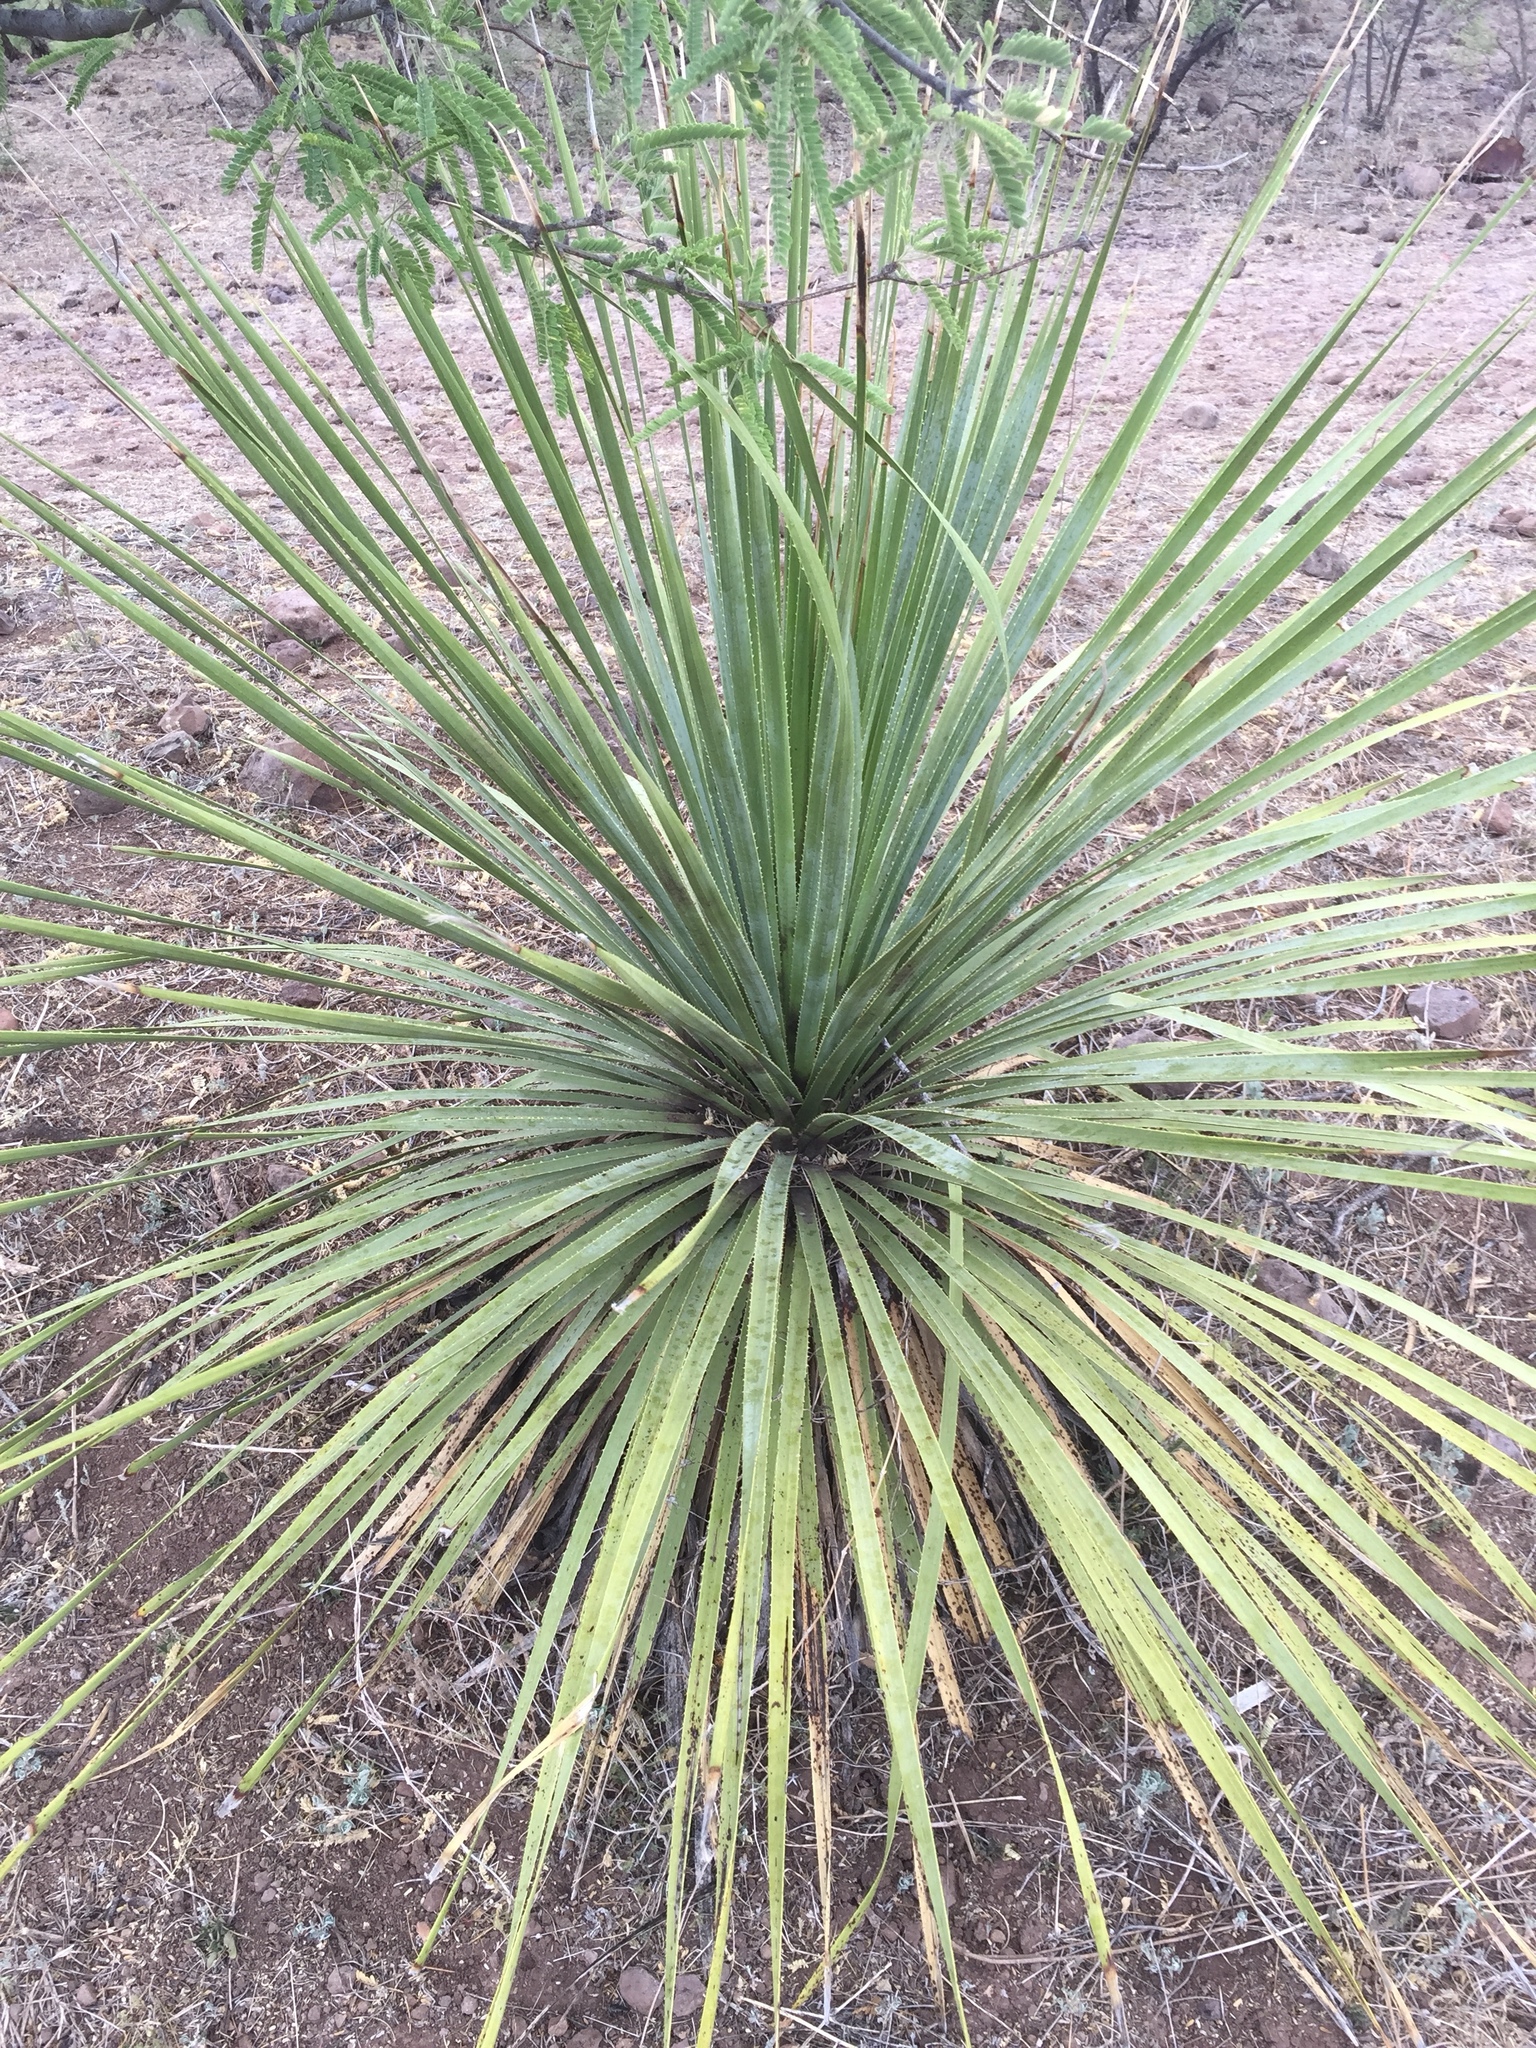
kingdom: Plantae
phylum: Tracheophyta
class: Liliopsida
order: Asparagales
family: Asparagaceae
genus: Dasylirion
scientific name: Dasylirion wheeleri
